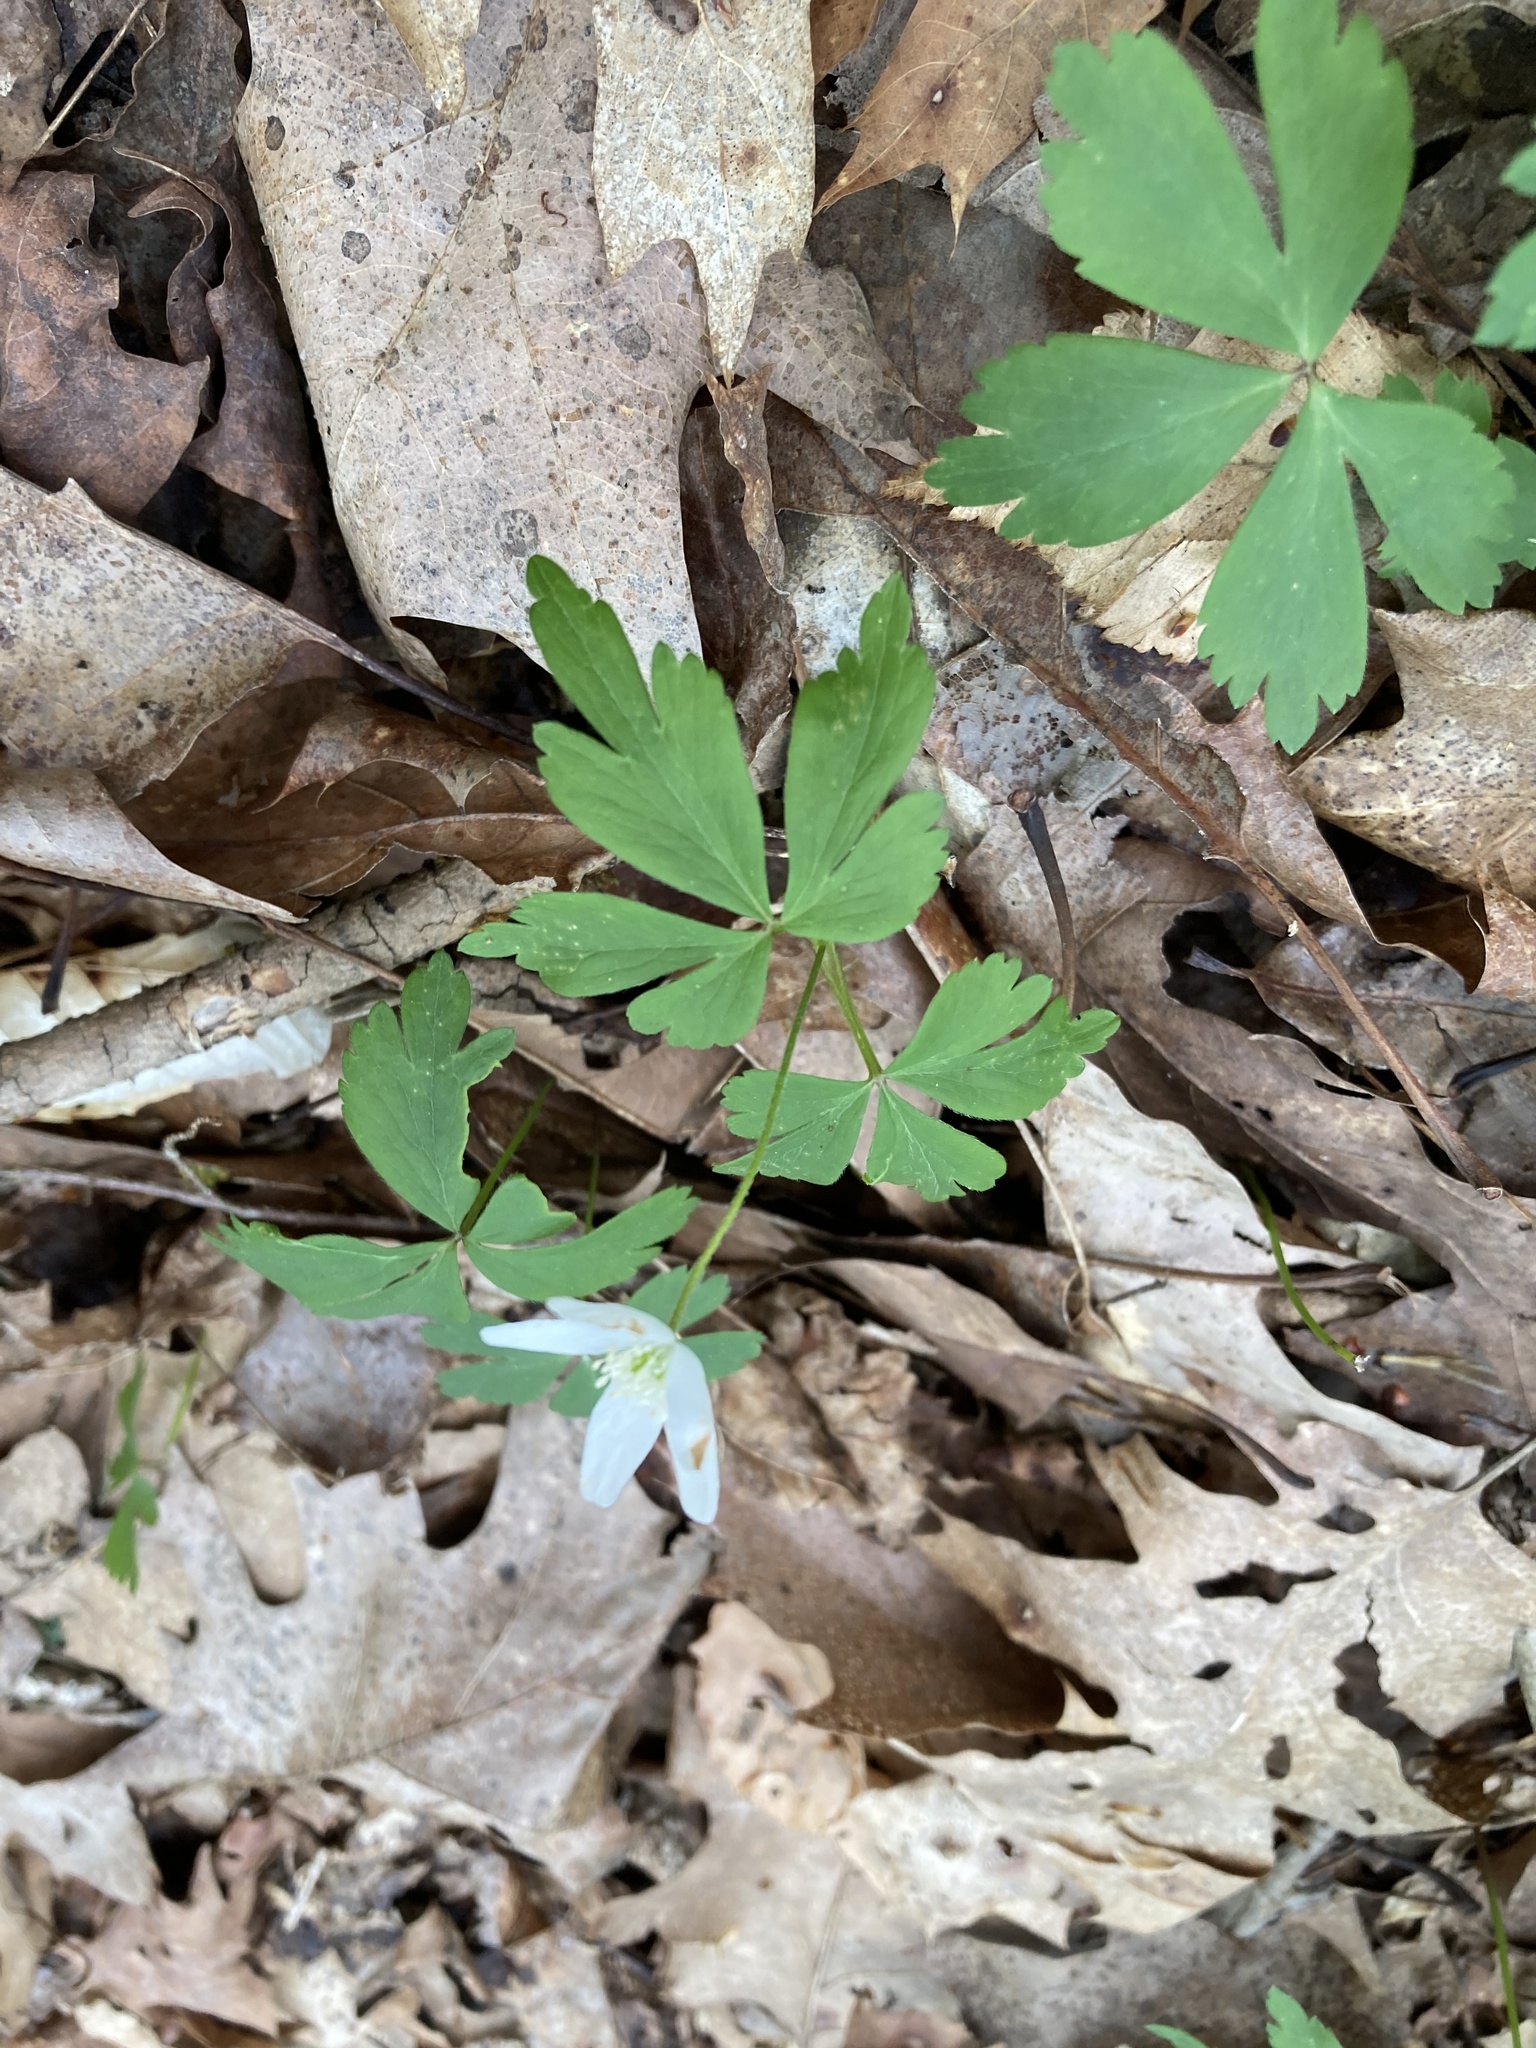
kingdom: Plantae
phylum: Tracheophyta
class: Magnoliopsida
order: Ranunculales
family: Ranunculaceae
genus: Anemone
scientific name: Anemone quinquefolia
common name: Wood anemone
